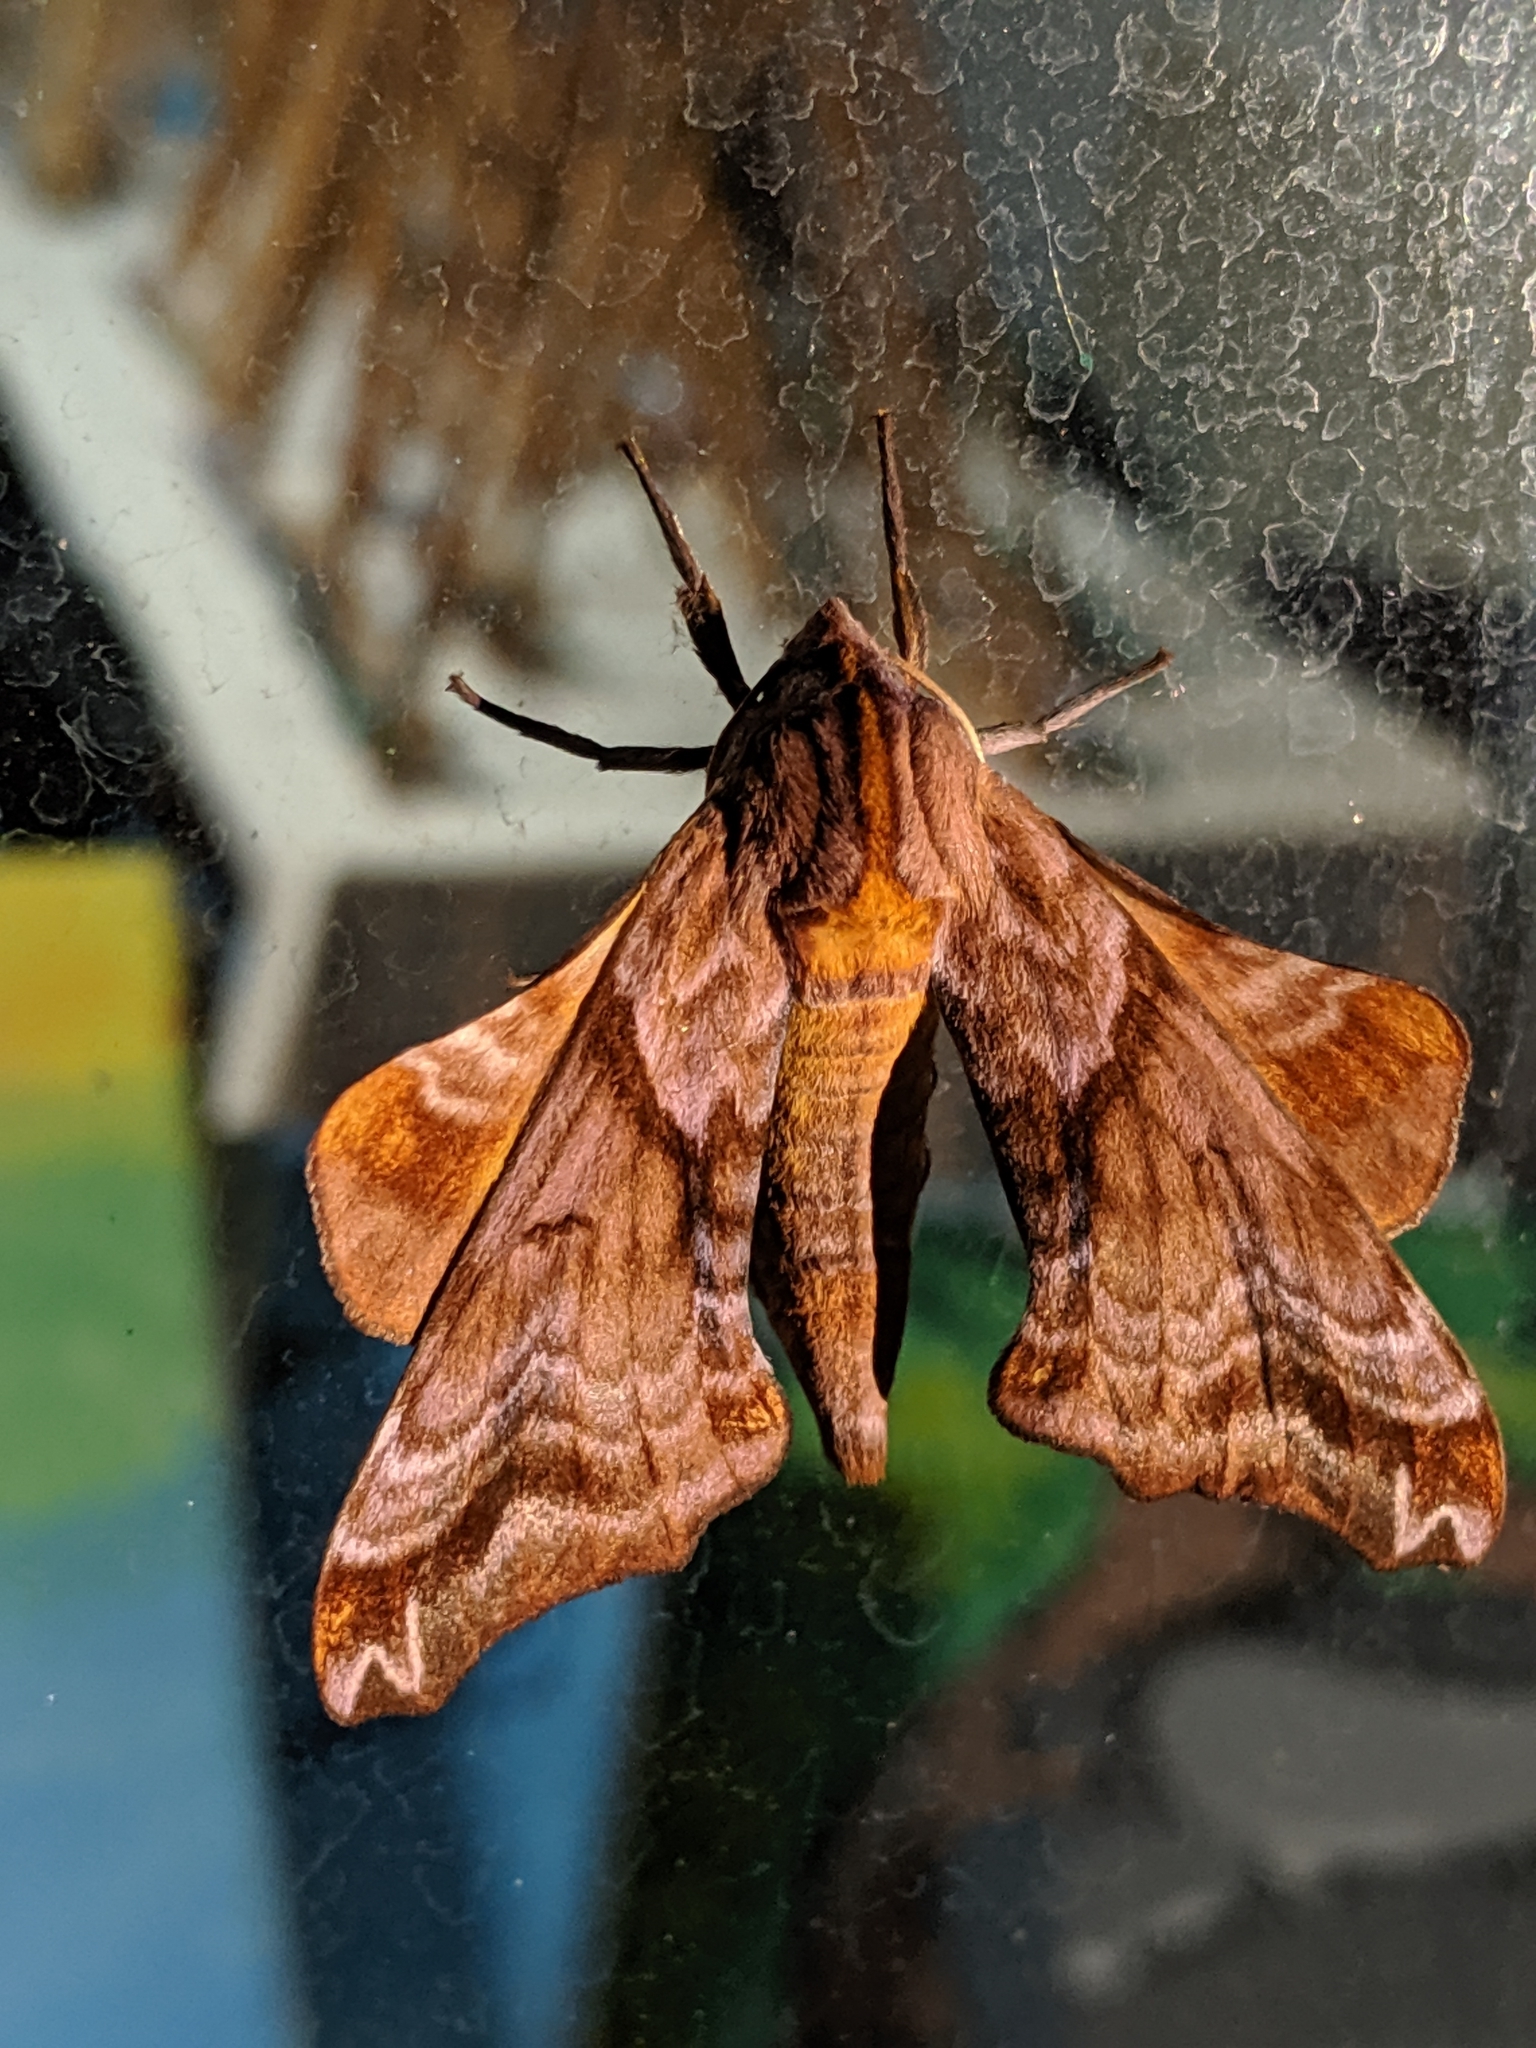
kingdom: Animalia
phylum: Arthropoda
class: Insecta
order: Lepidoptera
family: Sphingidae
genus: Paonias
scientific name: Paonias myops
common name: Small-eyed sphinx
